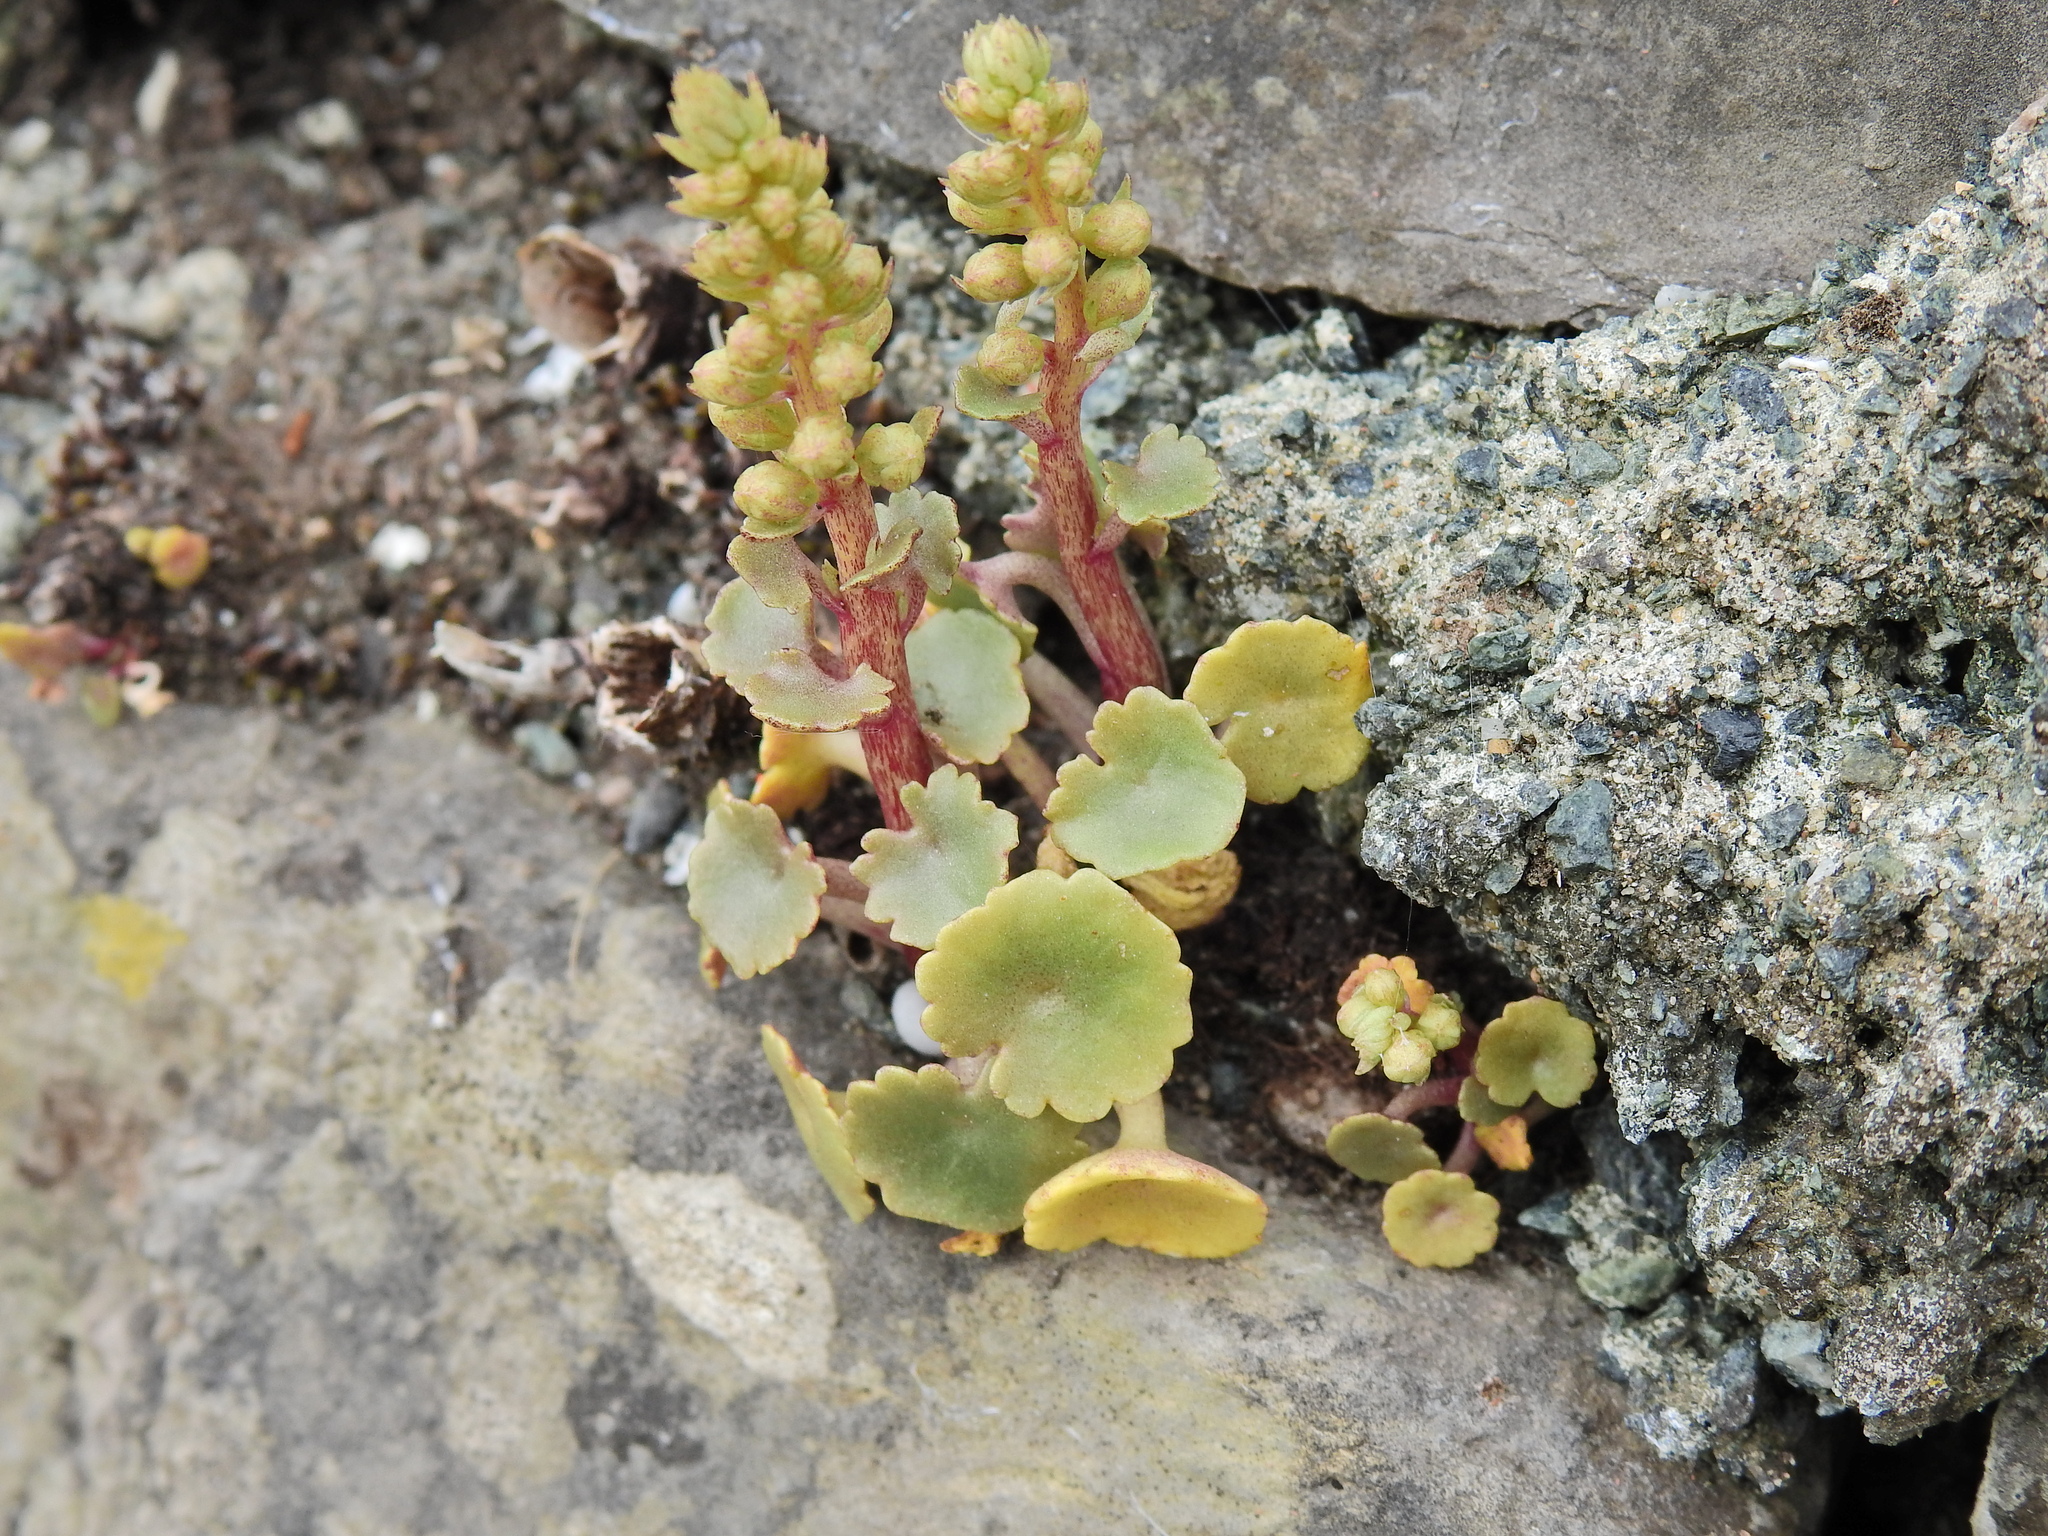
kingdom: Plantae
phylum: Tracheophyta
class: Magnoliopsida
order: Saxifragales
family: Crassulaceae
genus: Umbilicus
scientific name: Umbilicus rupestris
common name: Navelwort
